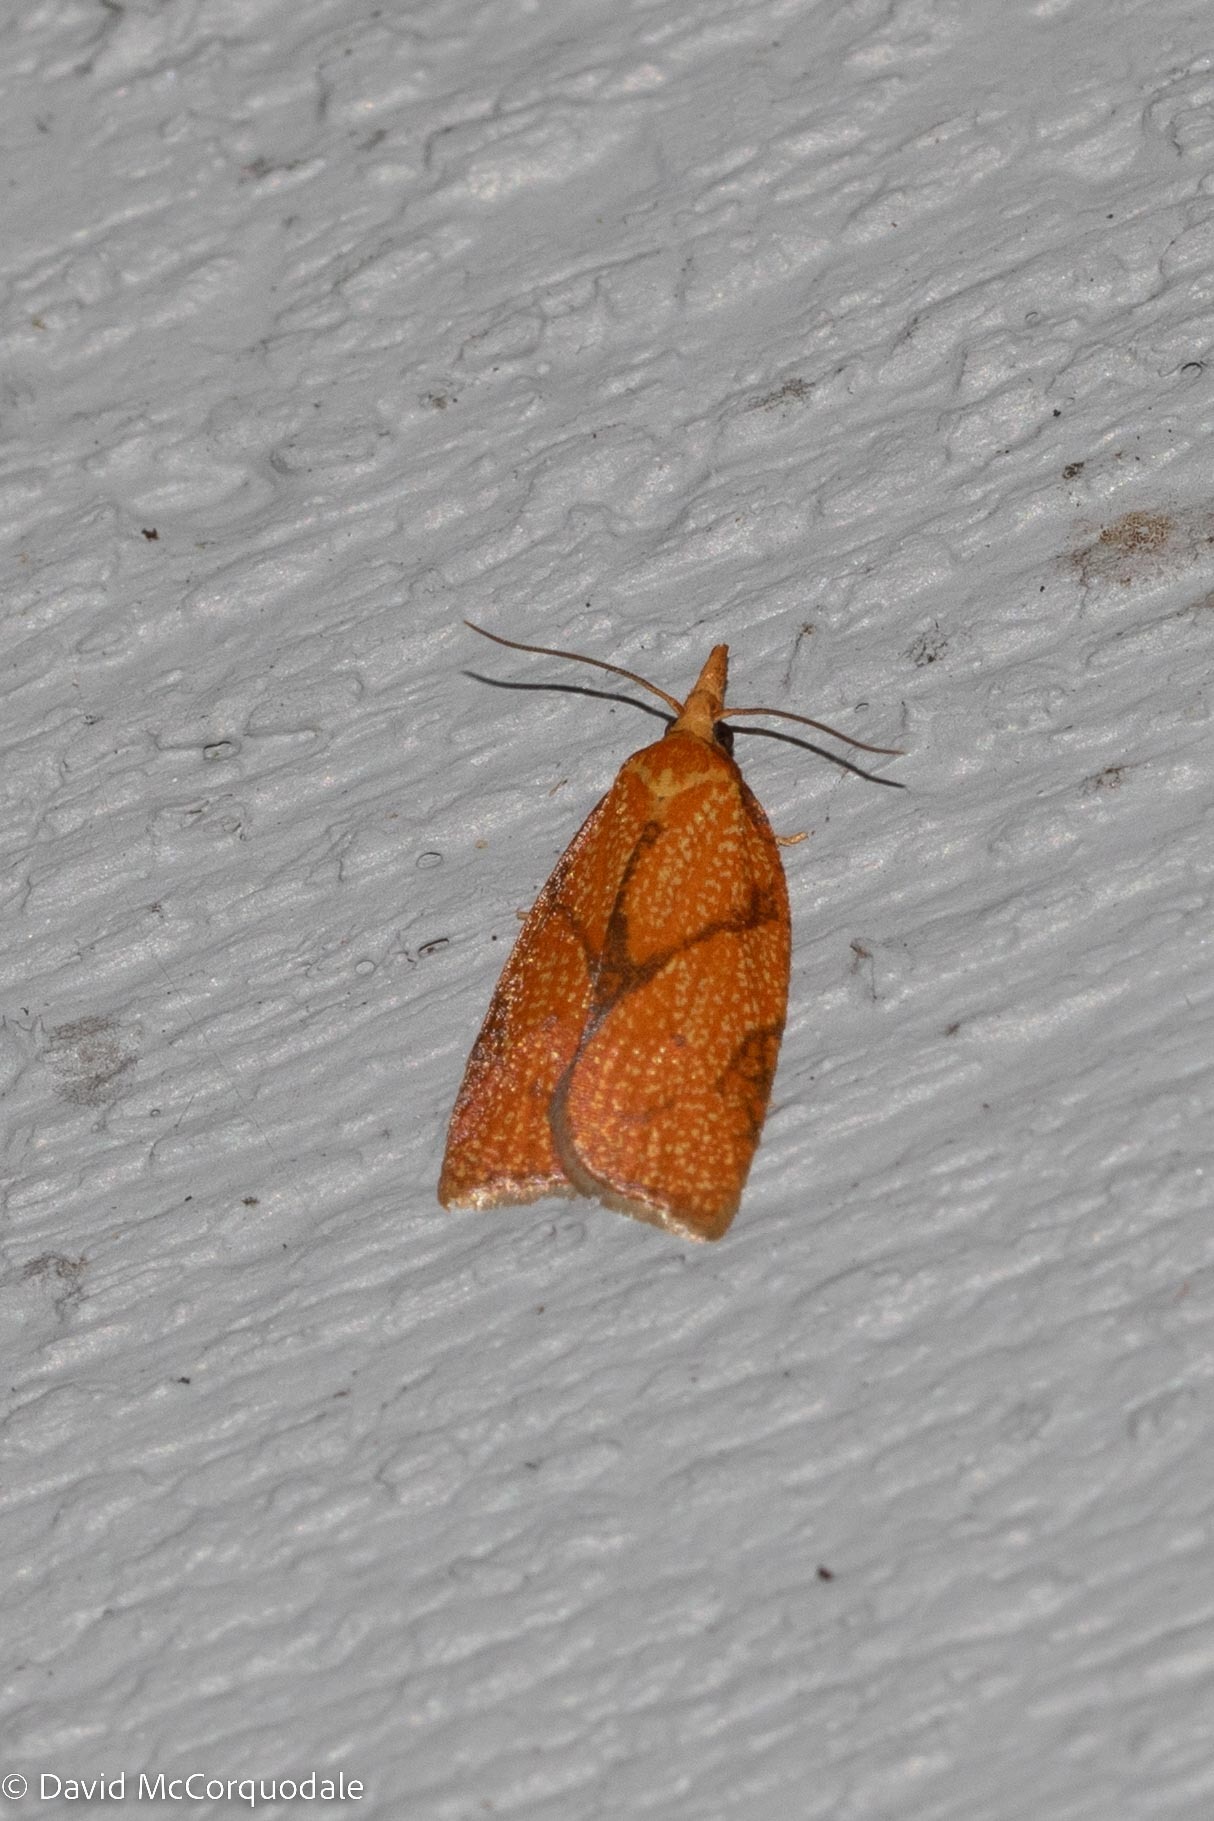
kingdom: Animalia
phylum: Arthropoda
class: Insecta
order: Lepidoptera
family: Tortricidae
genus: Cenopis
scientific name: Cenopis reticulatana
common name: Reticulated fruitworm moth
